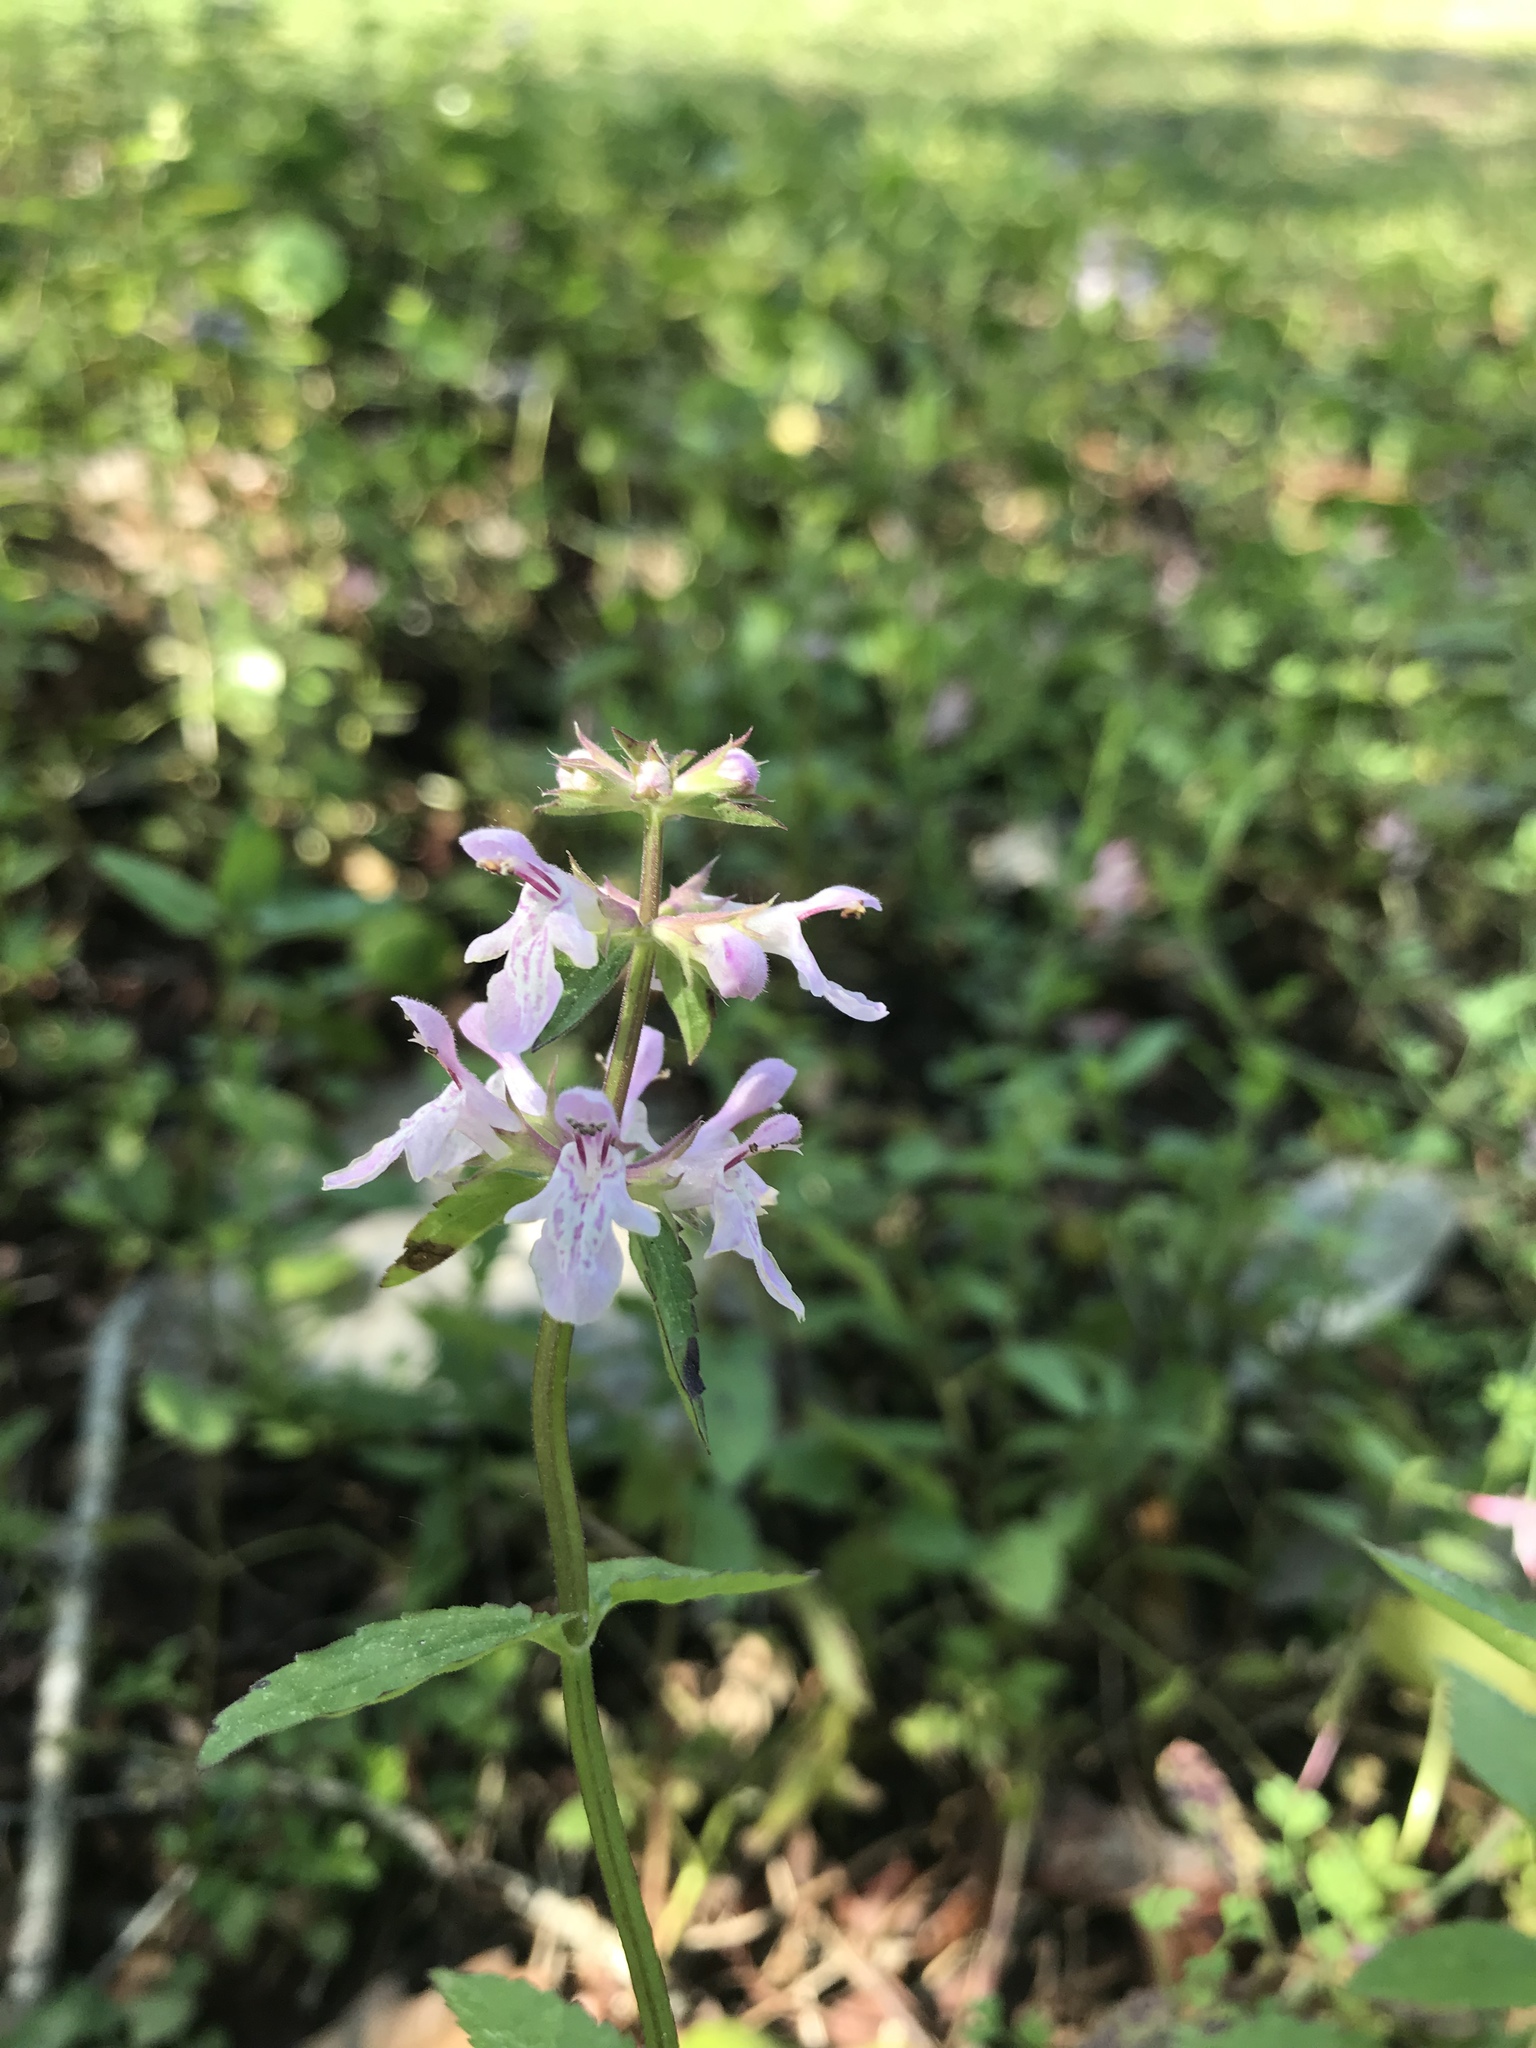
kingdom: Plantae
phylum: Tracheophyta
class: Magnoliopsida
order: Lamiales
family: Lamiaceae
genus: Stachys
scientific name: Stachys floridana
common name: Florida betony
